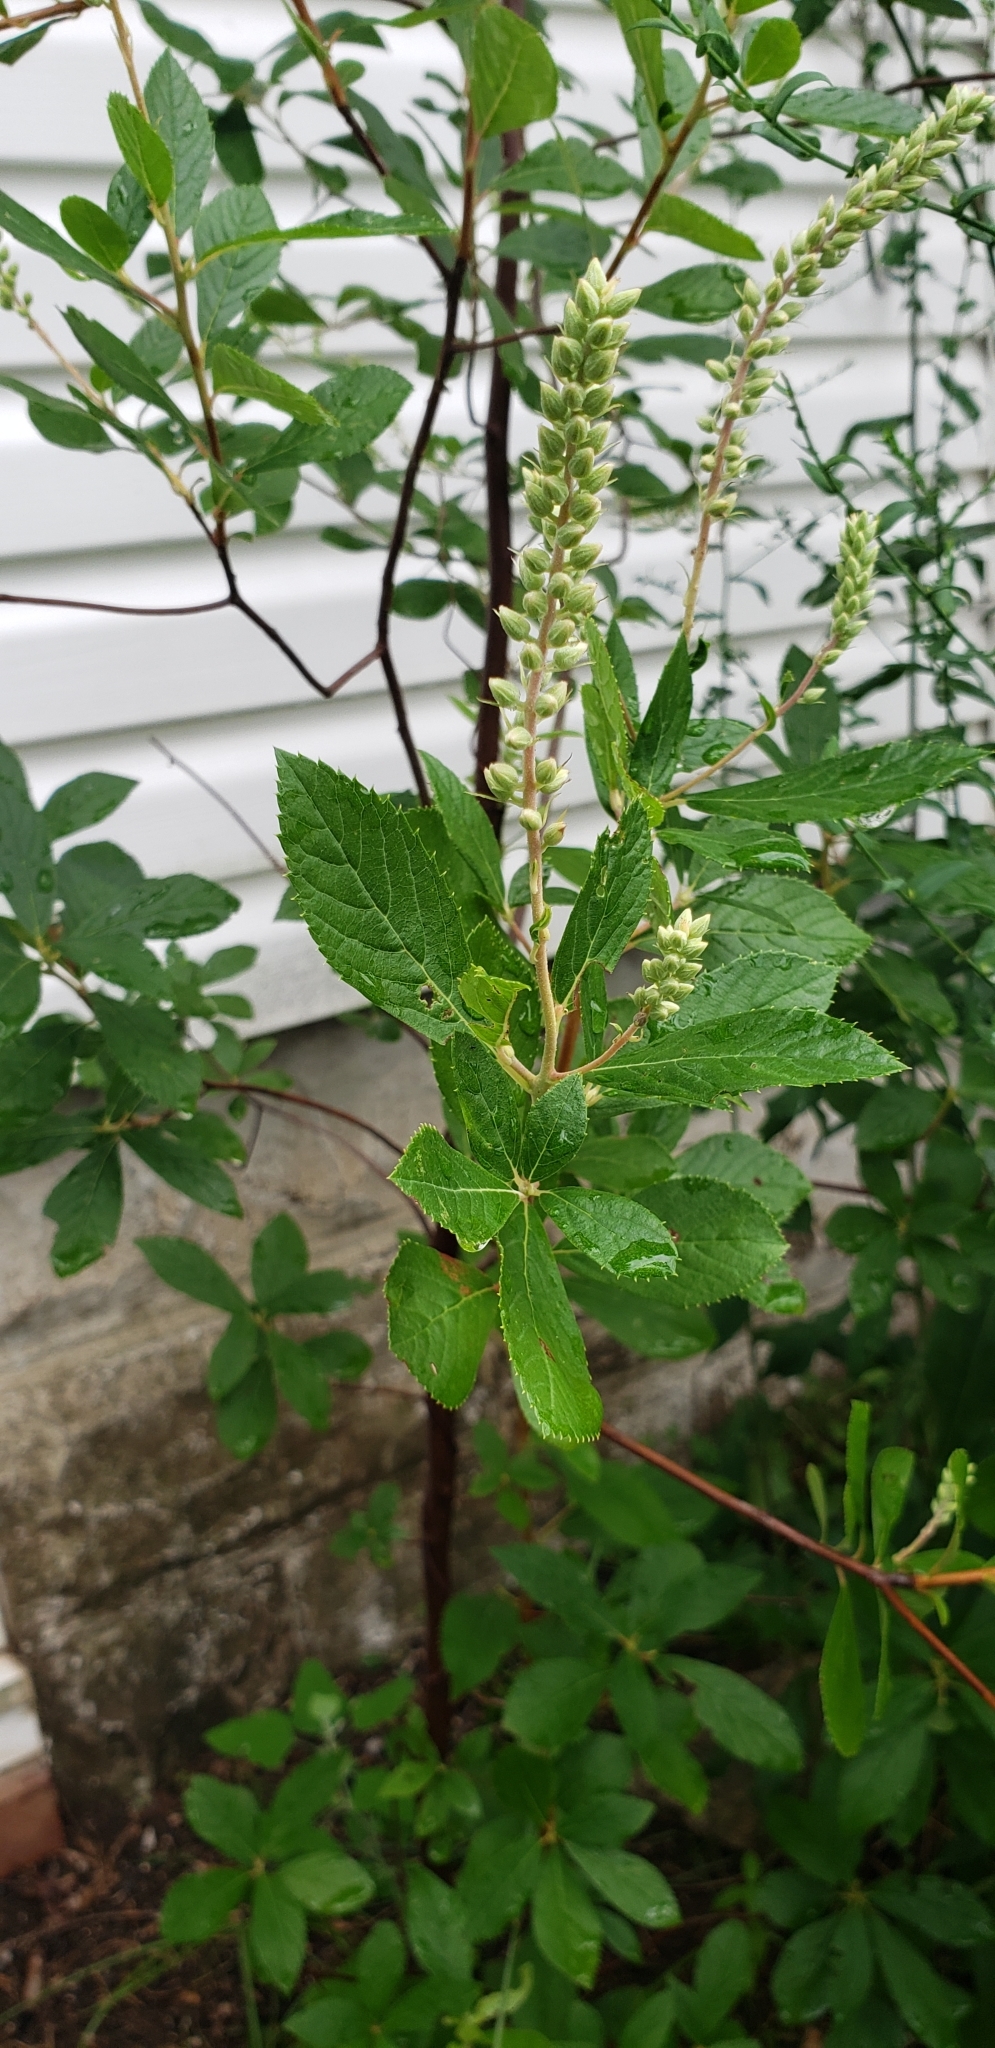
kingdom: Plantae
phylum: Tracheophyta
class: Magnoliopsida
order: Ericales
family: Clethraceae
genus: Clethra
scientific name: Clethra alnifolia
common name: Sweet pepperbush
